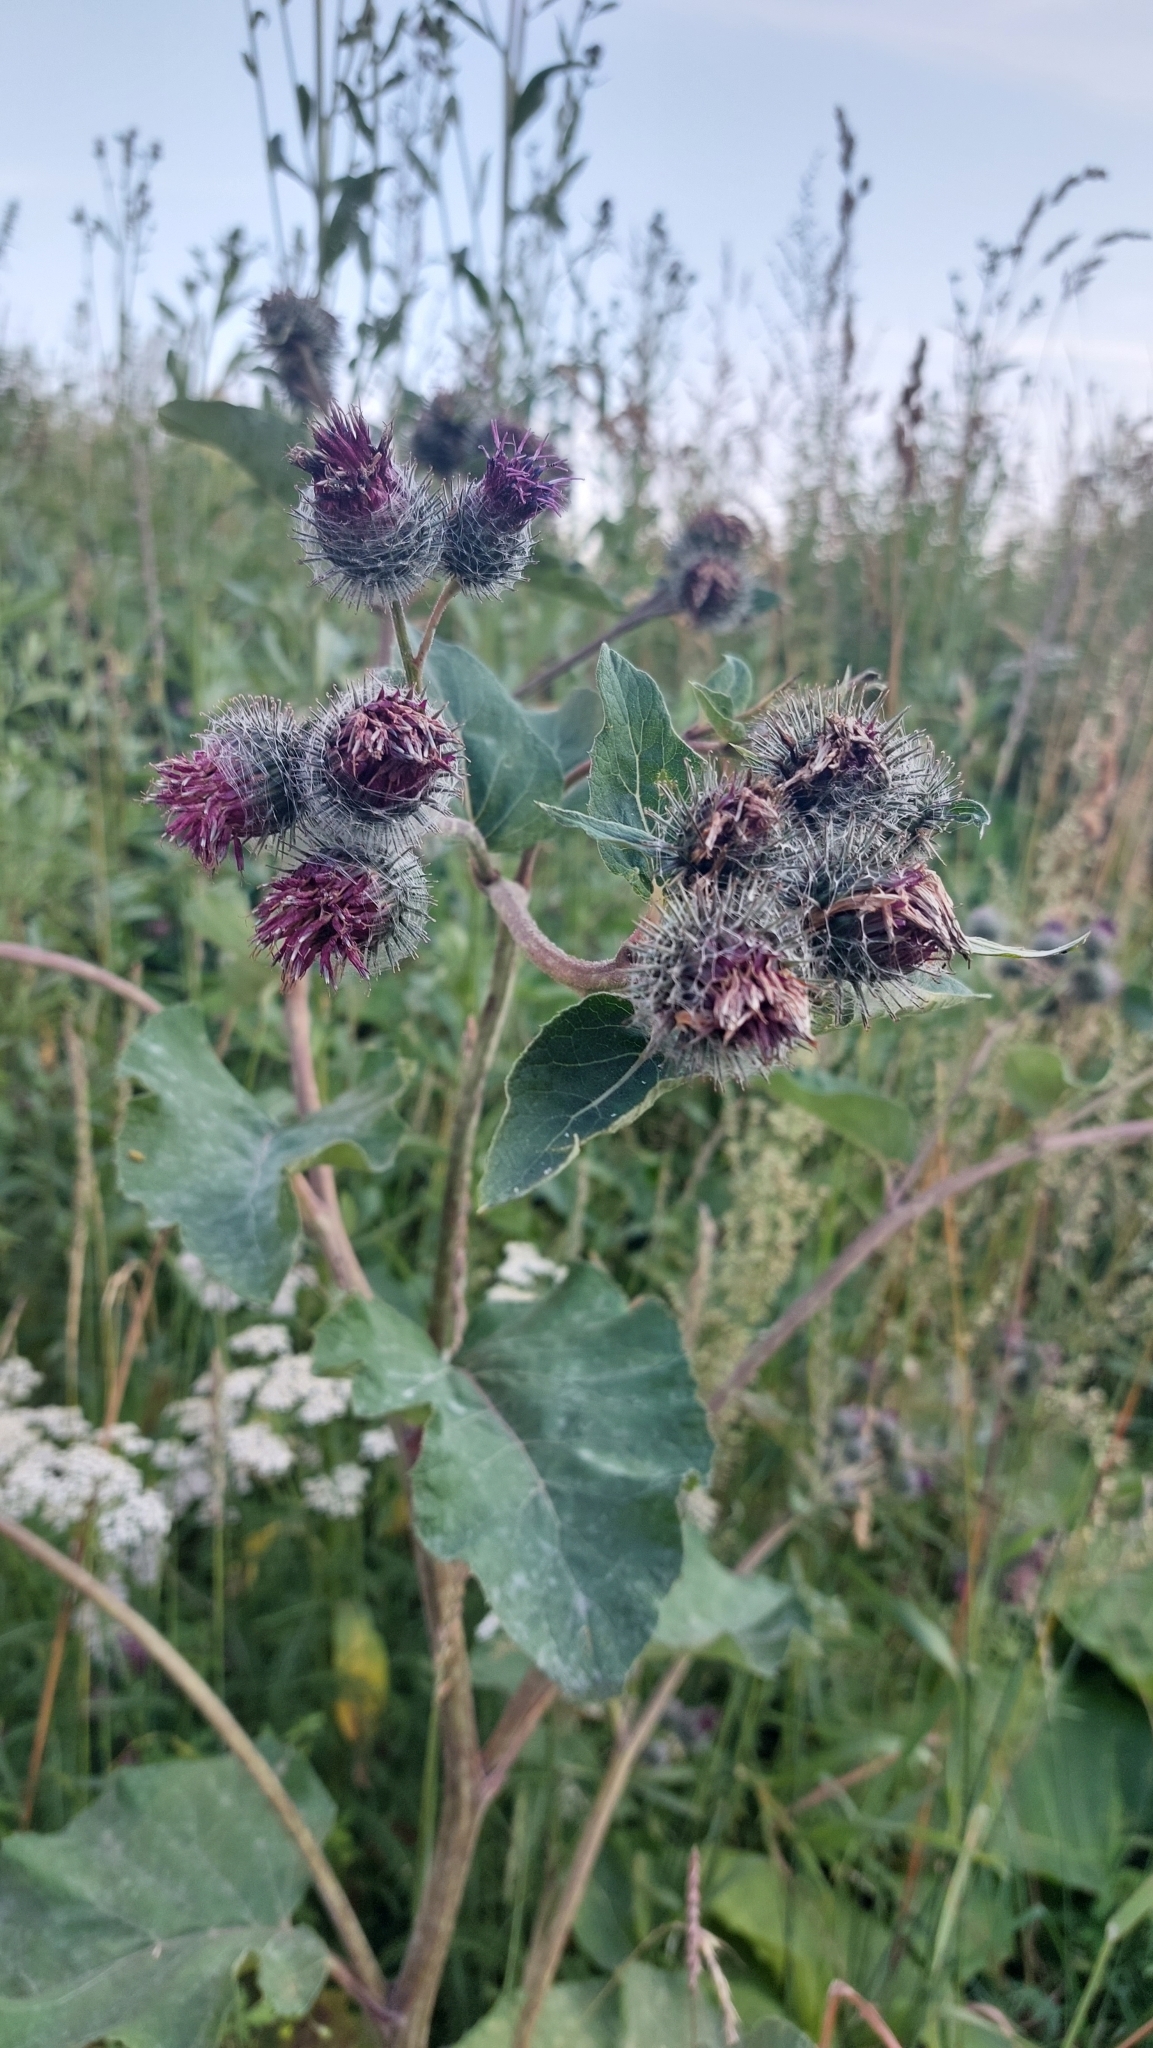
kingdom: Plantae
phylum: Tracheophyta
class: Magnoliopsida
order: Asterales
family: Asteraceae
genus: Arctium
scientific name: Arctium tomentosum
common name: Woolly burdock
